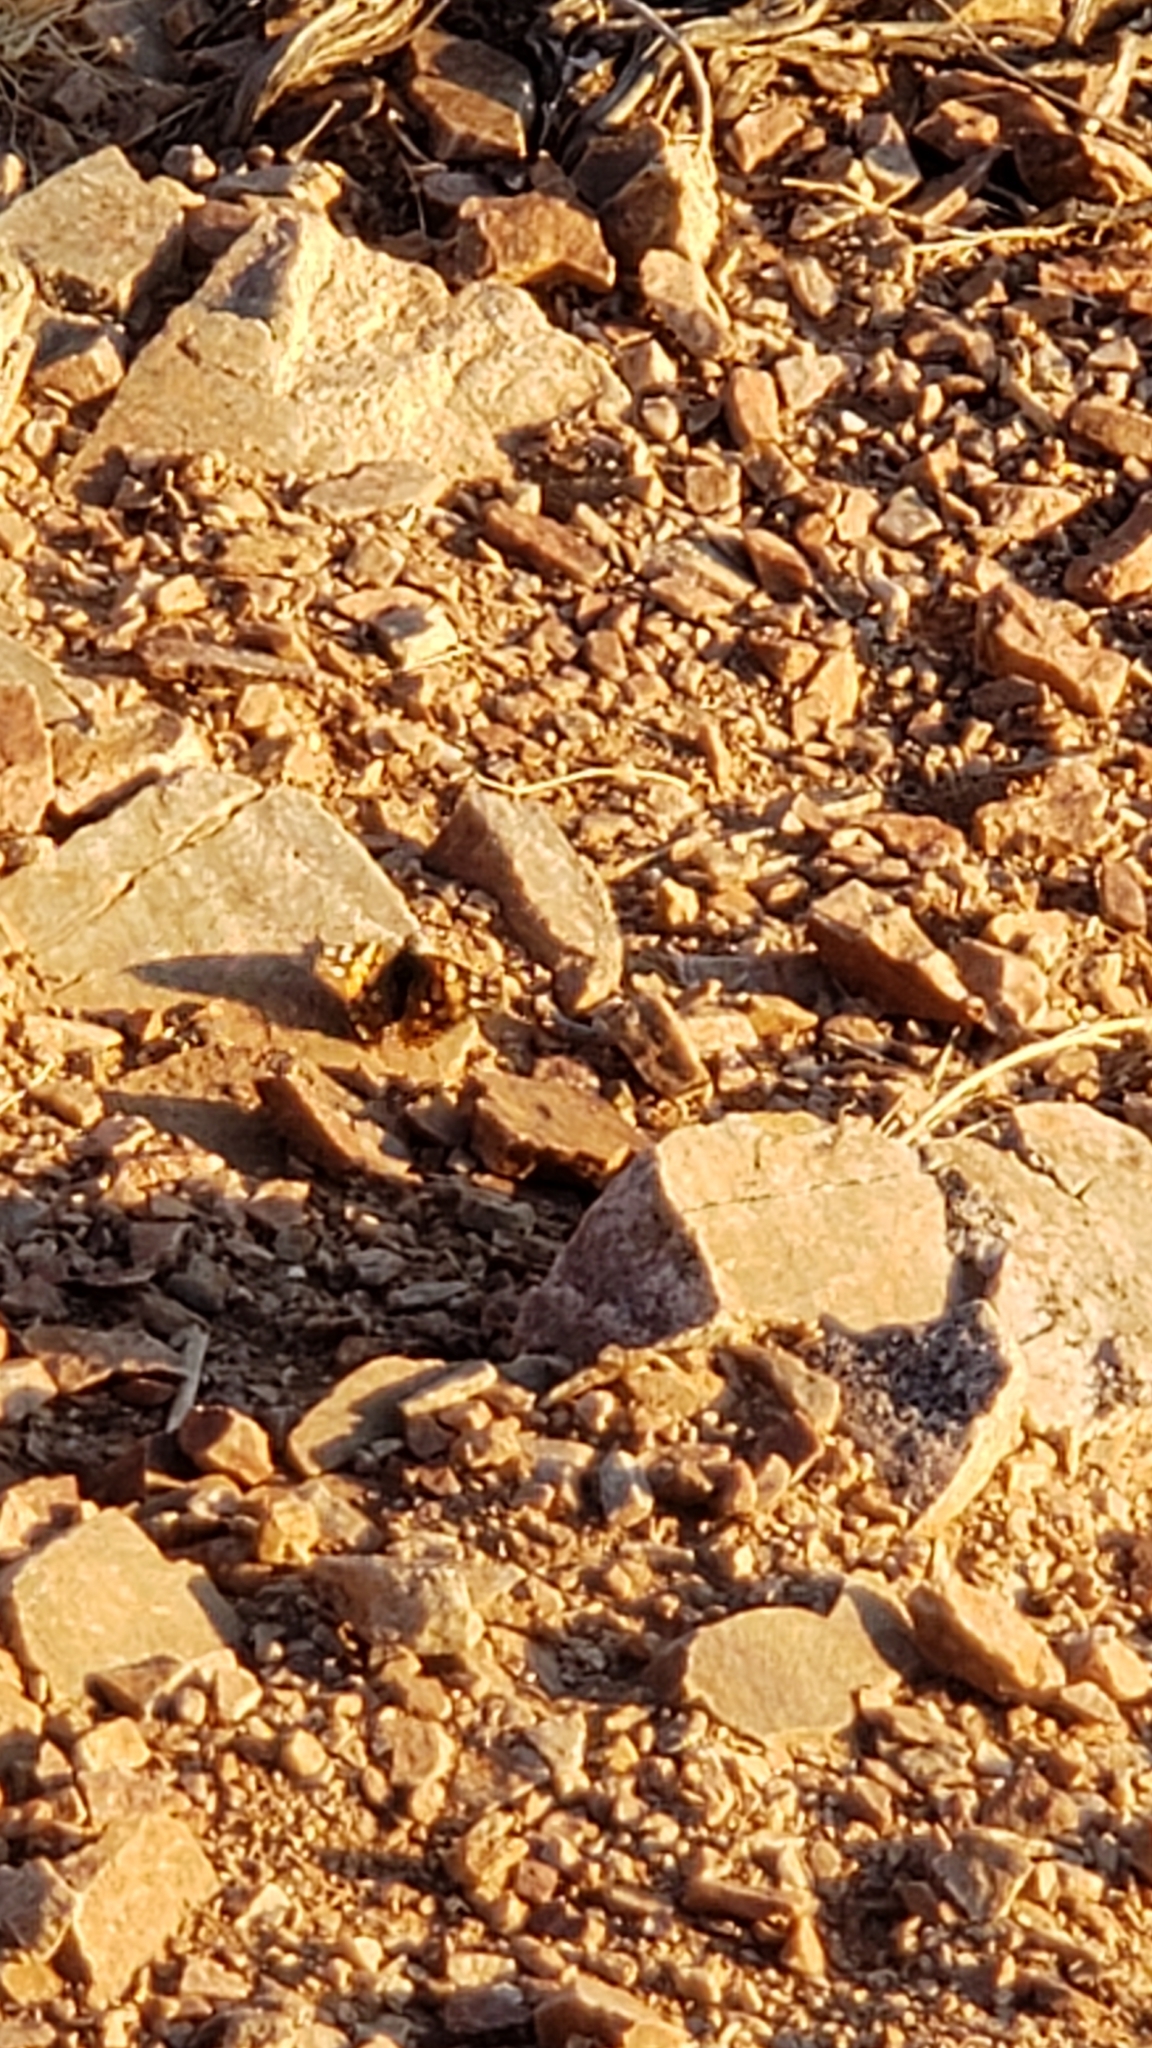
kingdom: Animalia
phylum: Arthropoda
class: Insecta
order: Lepidoptera
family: Nymphalidae
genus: Vanessa
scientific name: Vanessa cardui
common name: Painted lady
